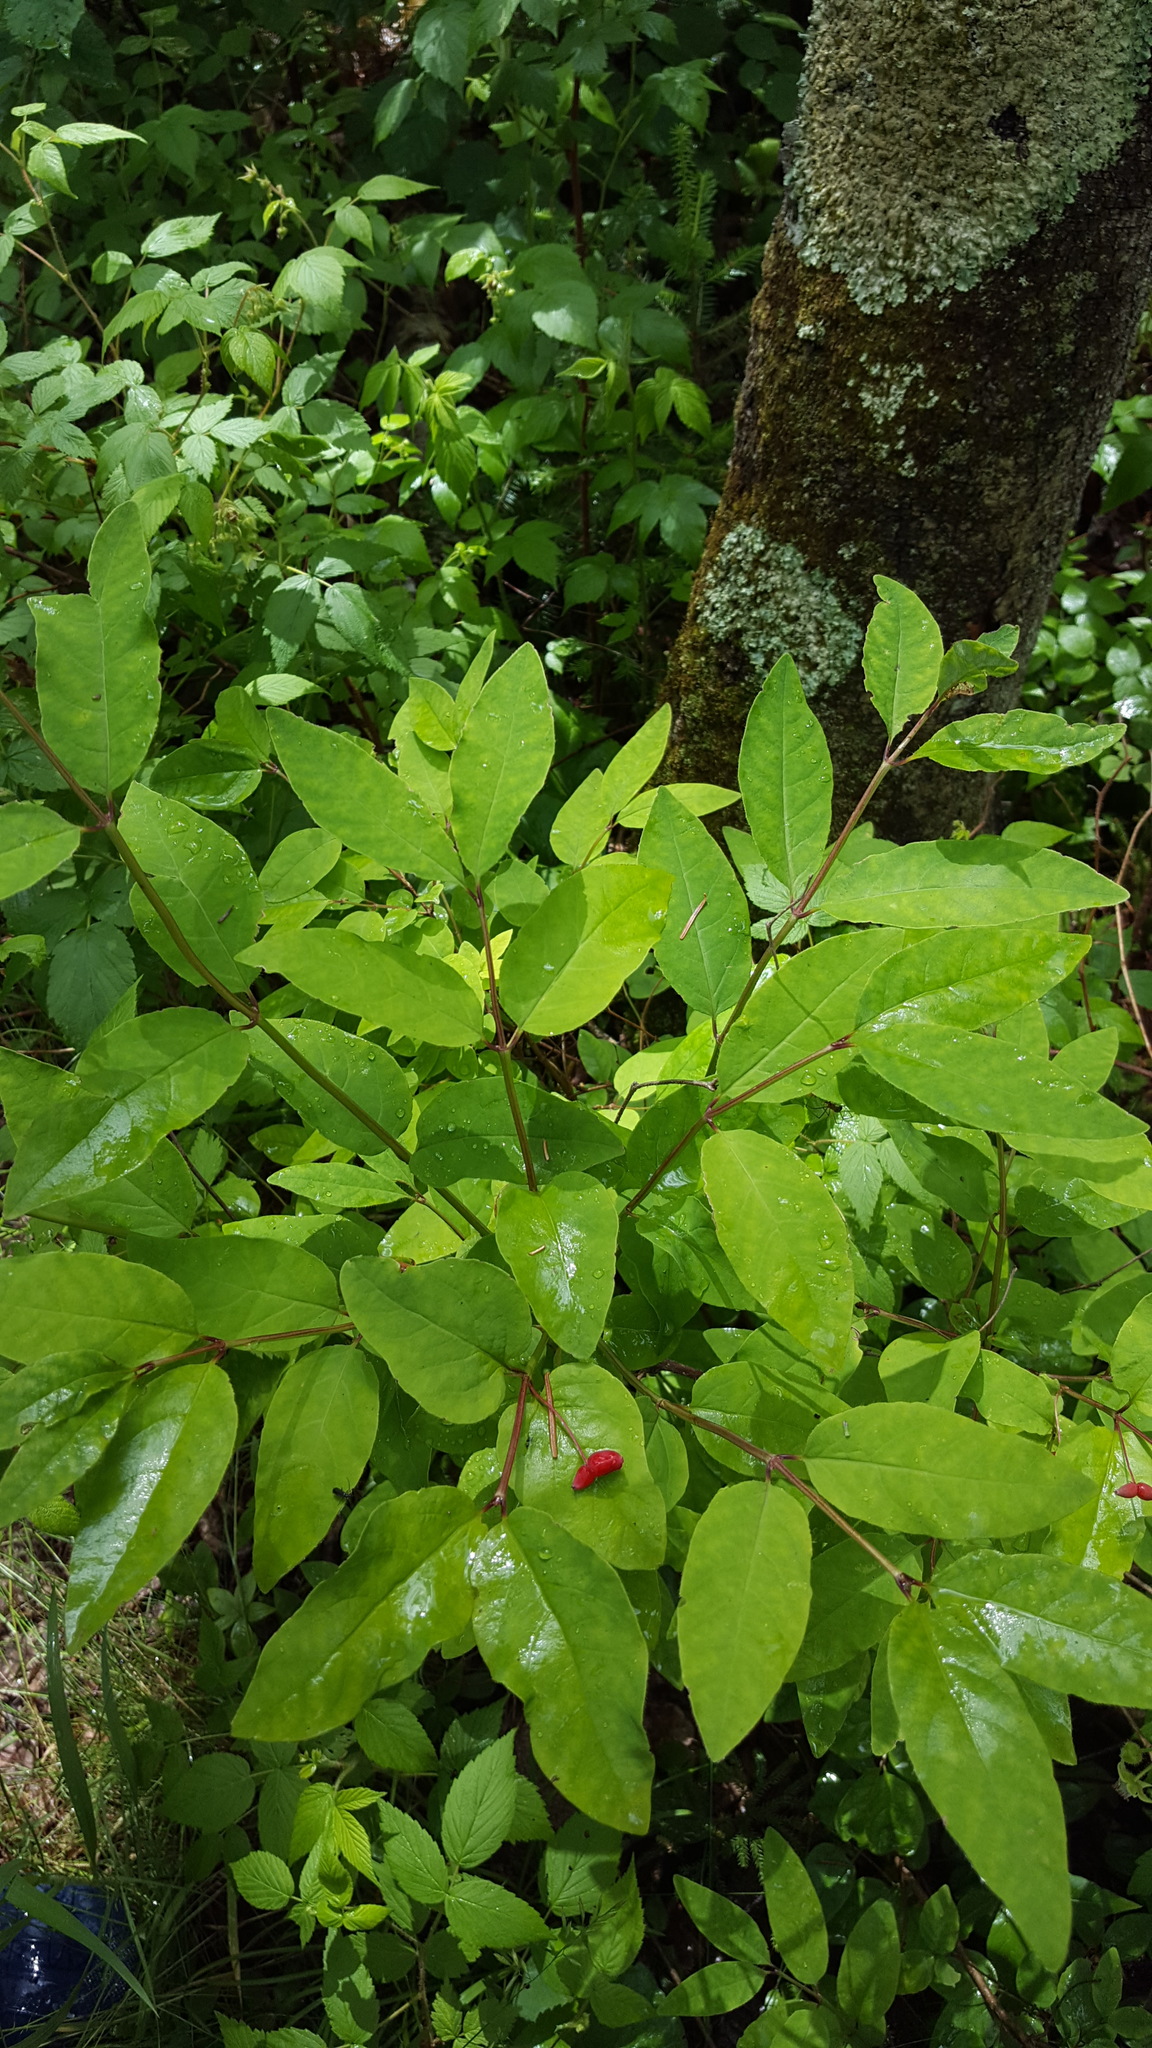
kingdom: Plantae
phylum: Tracheophyta
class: Magnoliopsida
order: Dipsacales
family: Caprifoliaceae
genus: Lonicera
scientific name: Lonicera canadensis
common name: American fly-honeysuckle
